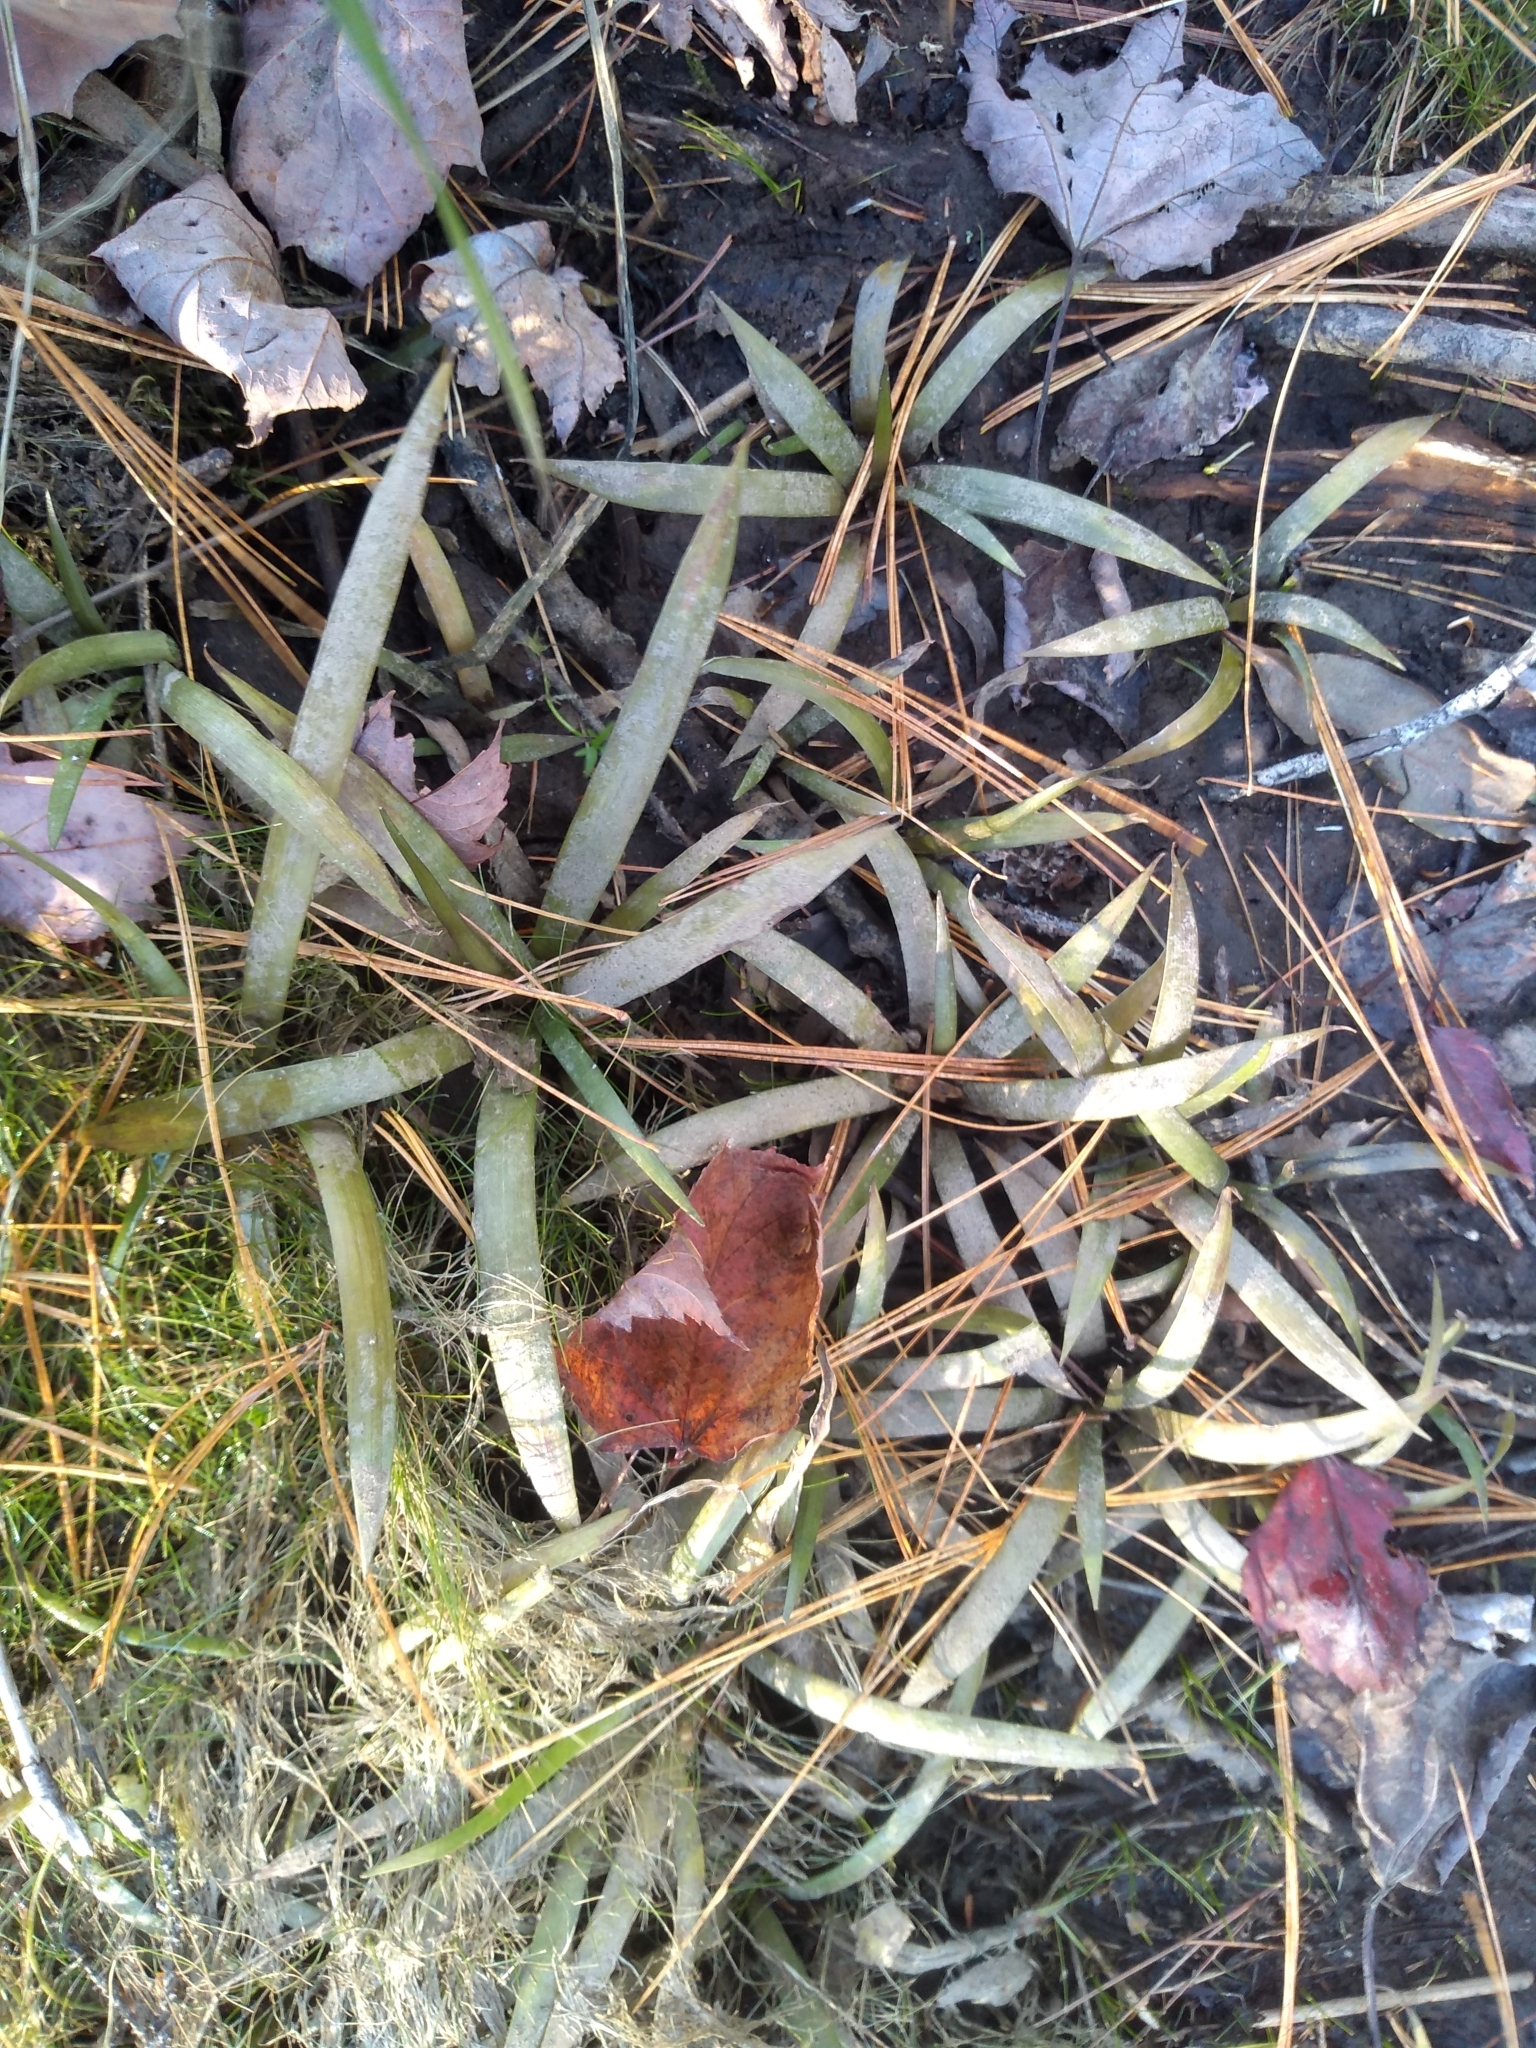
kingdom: Plantae
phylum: Tracheophyta
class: Liliopsida
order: Alismatales
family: Alismataceae
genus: Sagittaria
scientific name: Sagittaria graminea
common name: Grass-leaved arrowhead
